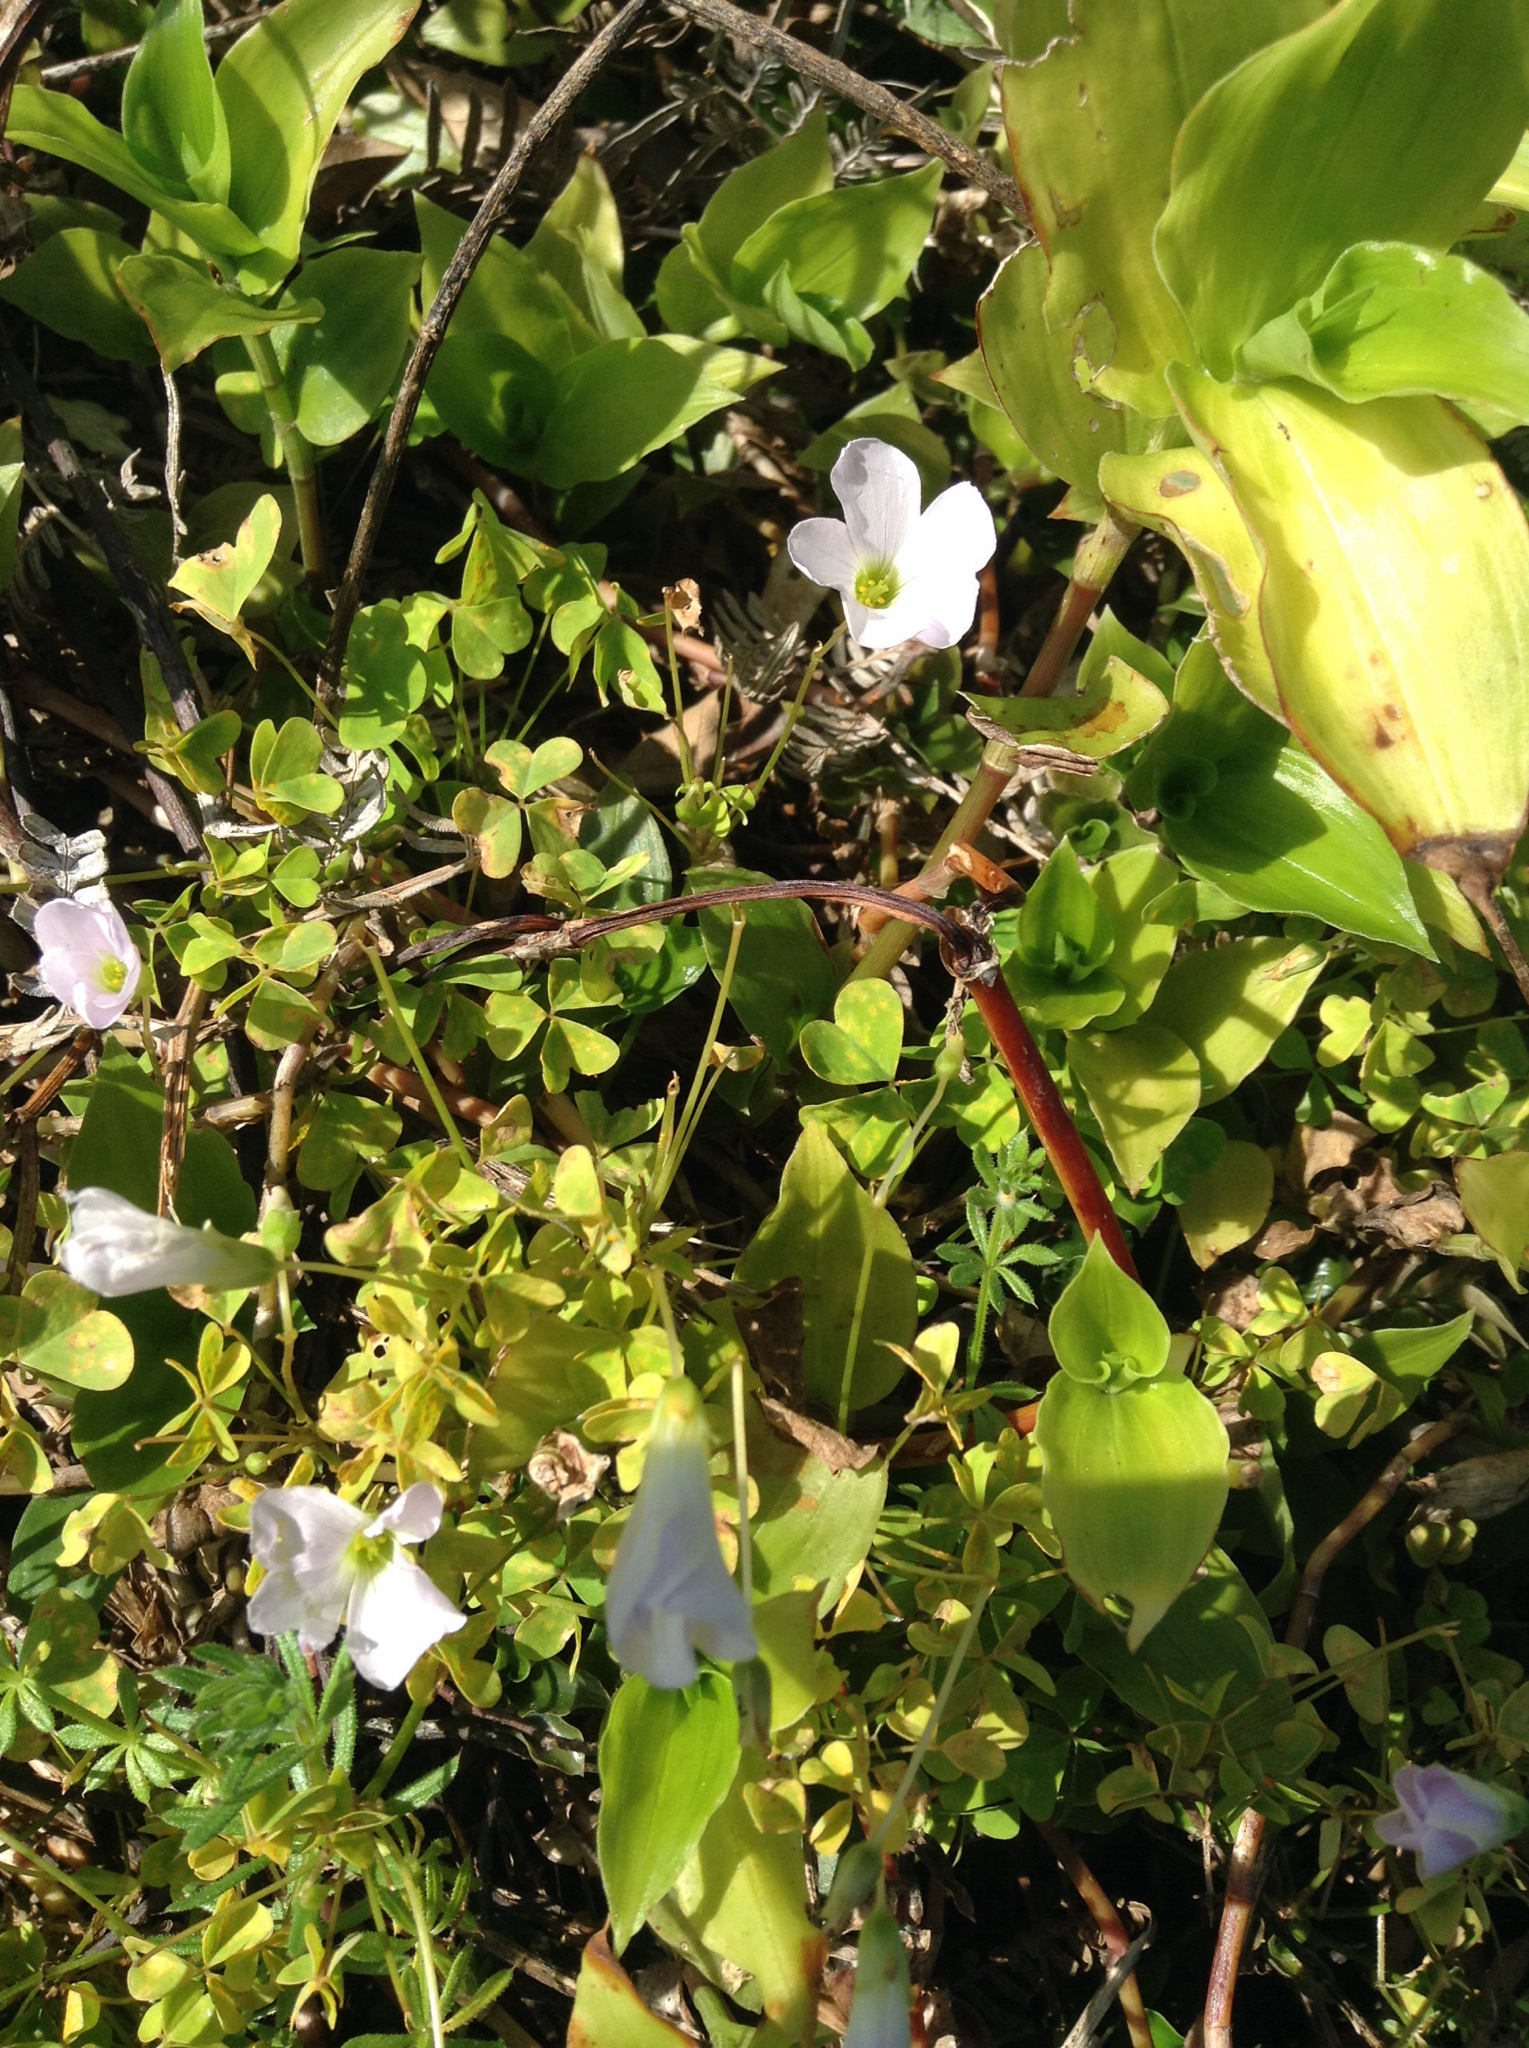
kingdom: Plantae
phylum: Tracheophyta
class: Magnoliopsida
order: Oxalidales
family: Oxalidaceae
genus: Oxalis
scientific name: Oxalis incarnata
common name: Pale pink-sorrel
